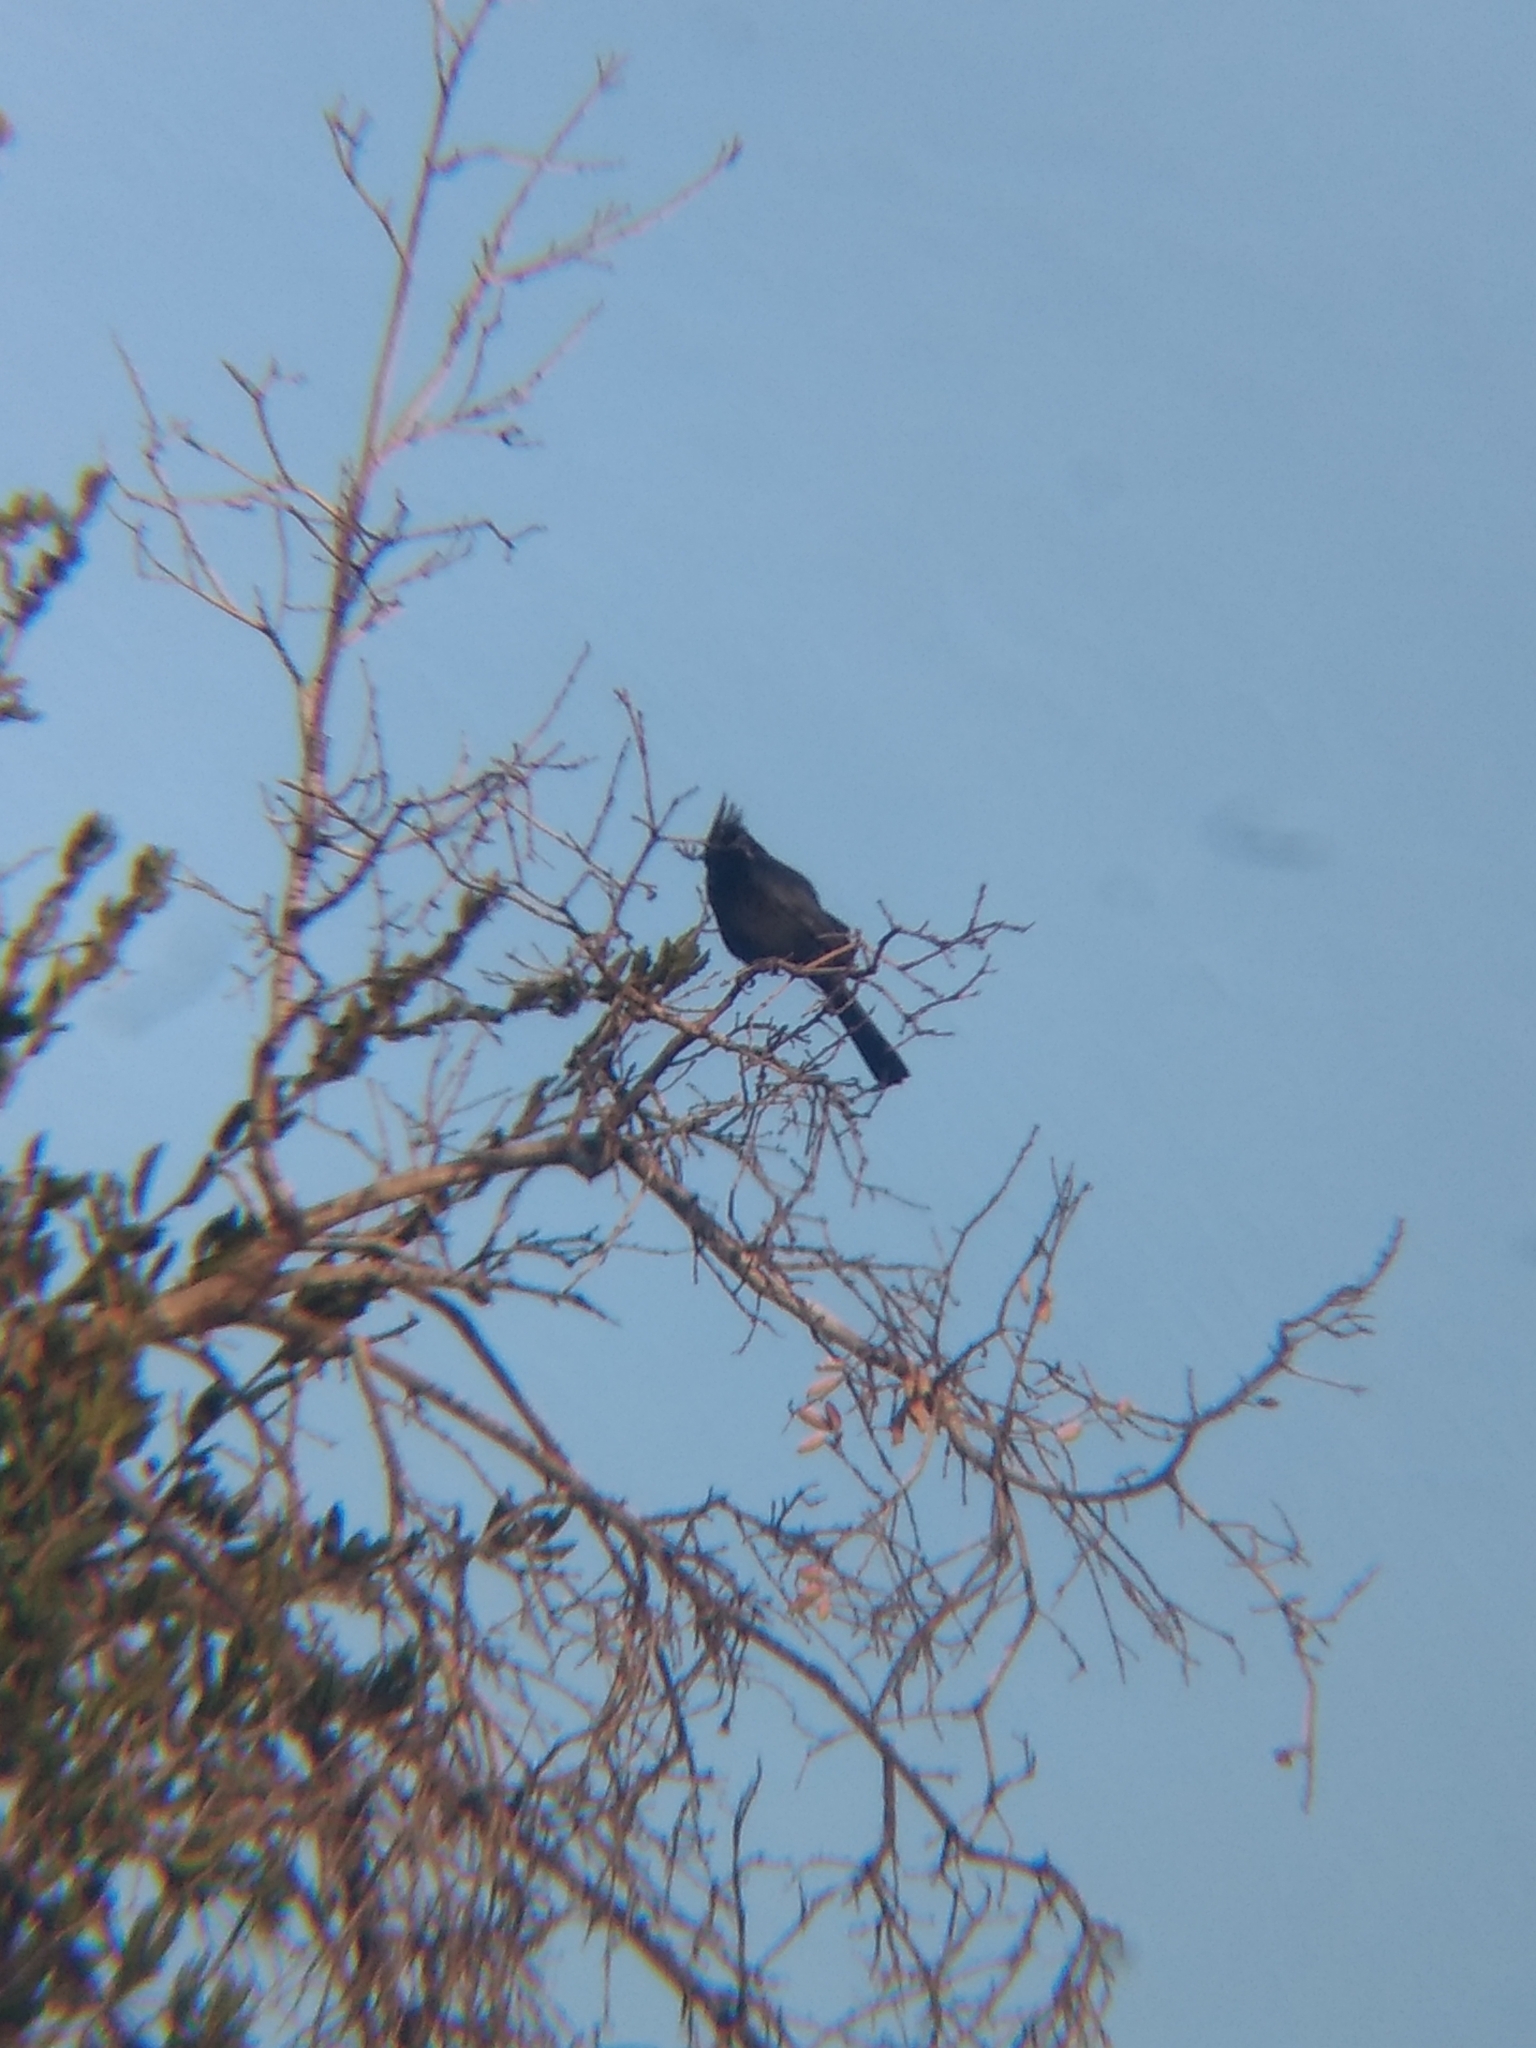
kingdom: Animalia
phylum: Chordata
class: Aves
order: Passeriformes
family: Ptilogonatidae
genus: Phainopepla
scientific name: Phainopepla nitens
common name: Phainopepla
